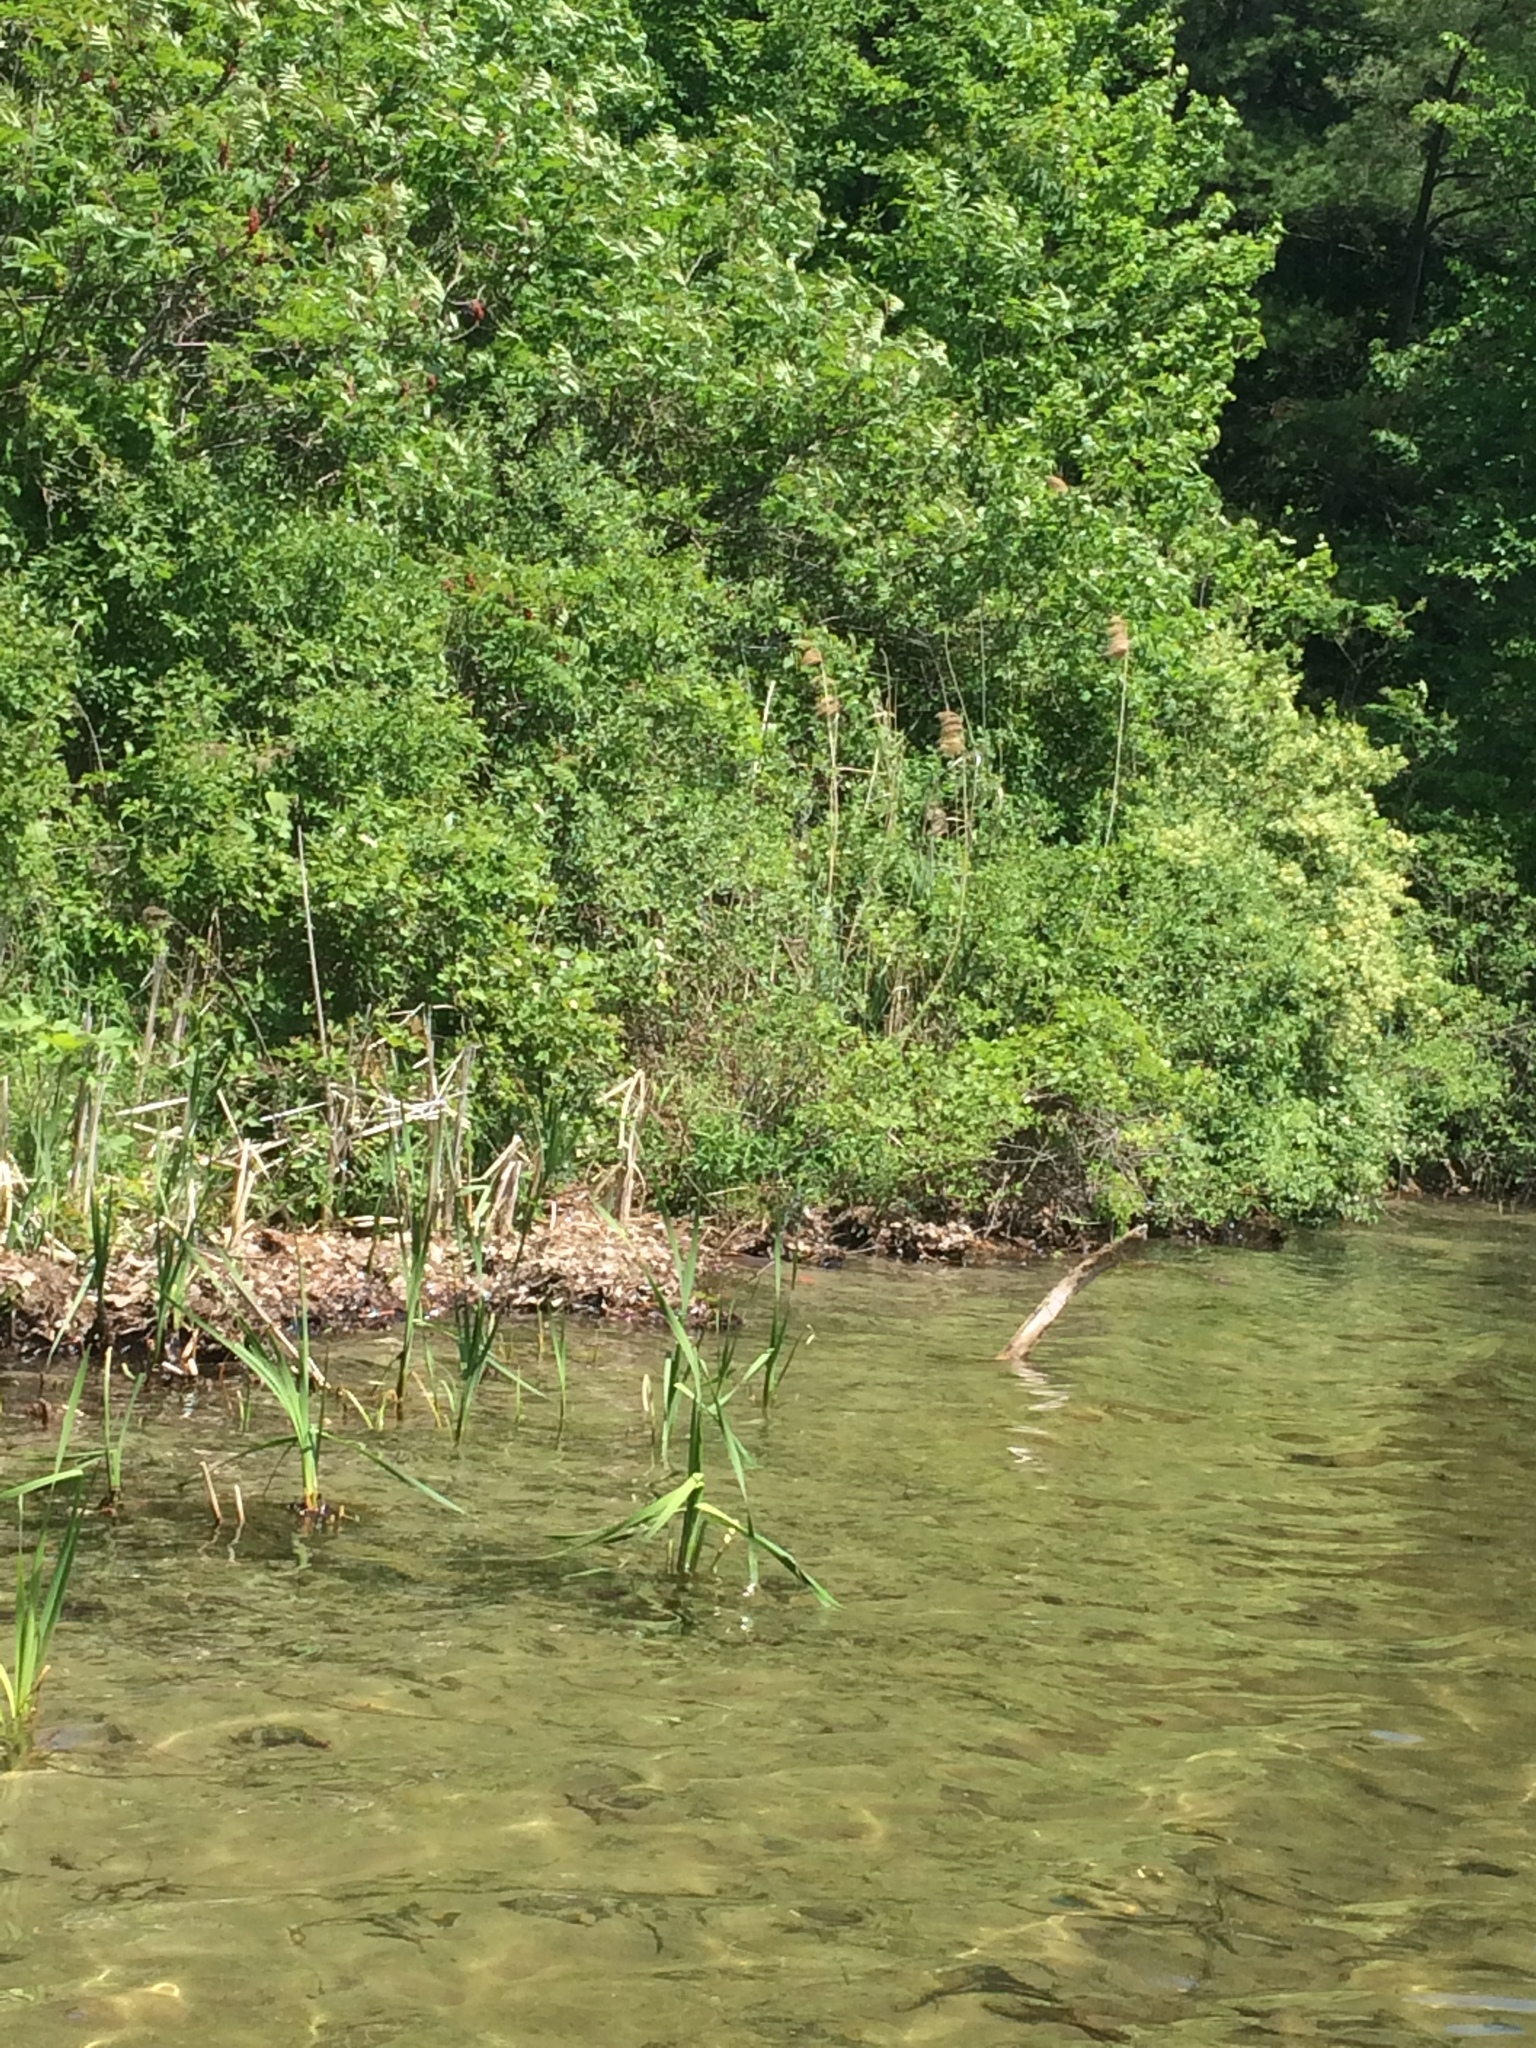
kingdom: Plantae
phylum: Tracheophyta
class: Liliopsida
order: Poales
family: Poaceae
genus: Phragmites
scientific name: Phragmites australis
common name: Common reed
